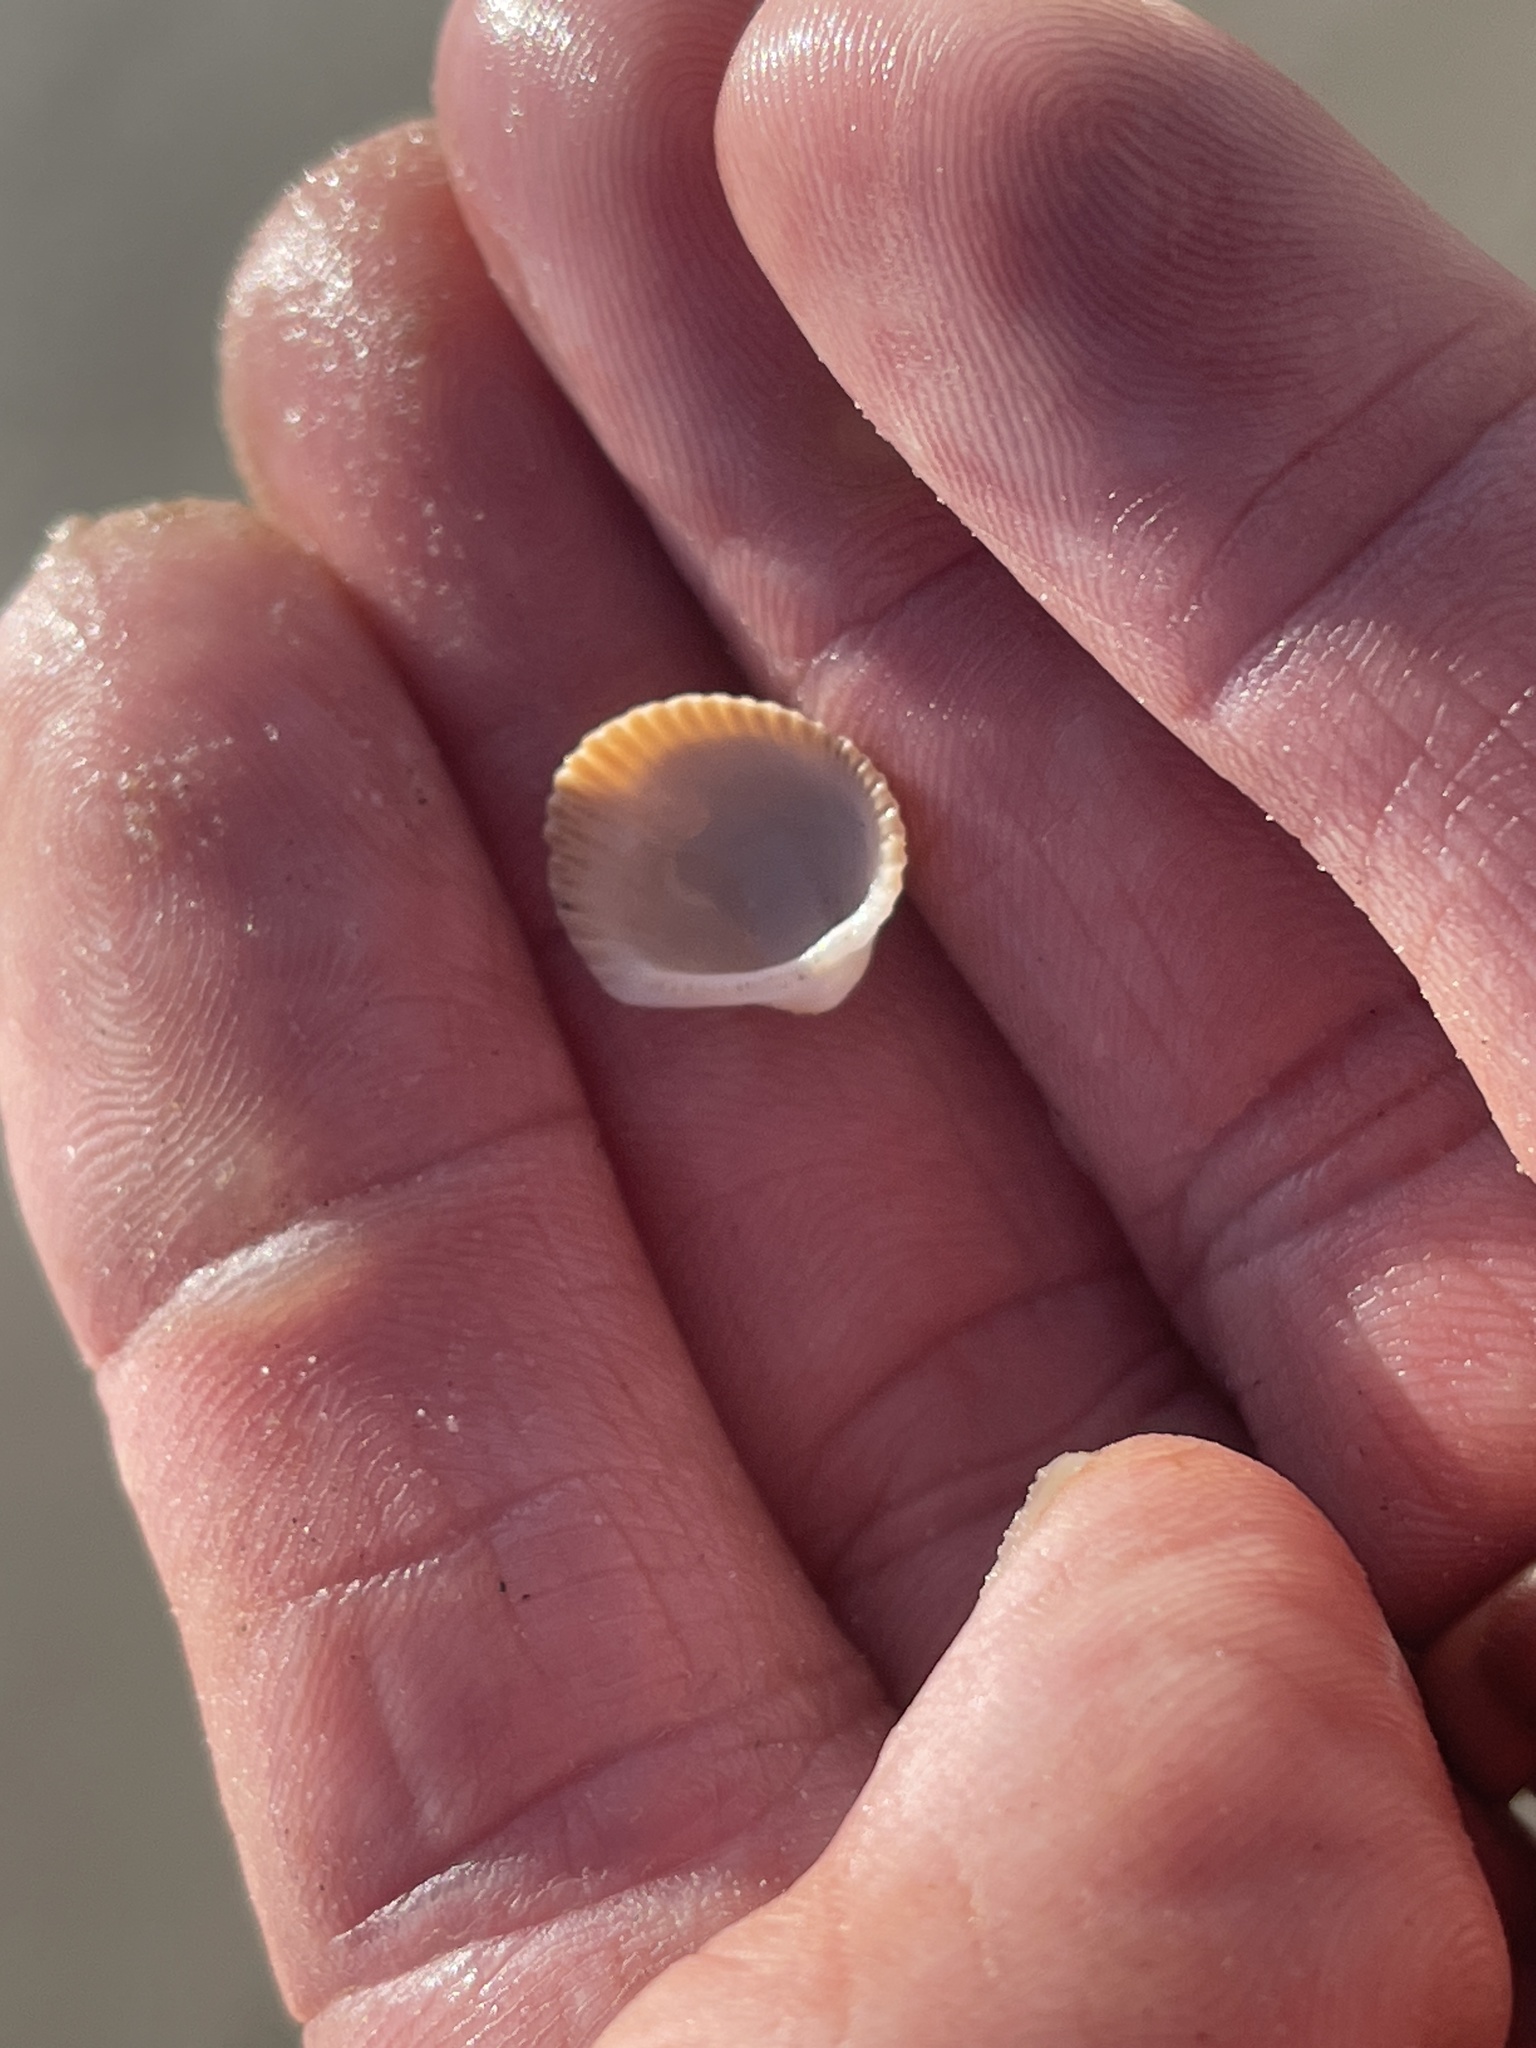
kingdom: Animalia
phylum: Mollusca
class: Bivalvia
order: Arcida
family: Arcidae
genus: Lunarca
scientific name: Lunarca ovalis
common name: Blood ark
